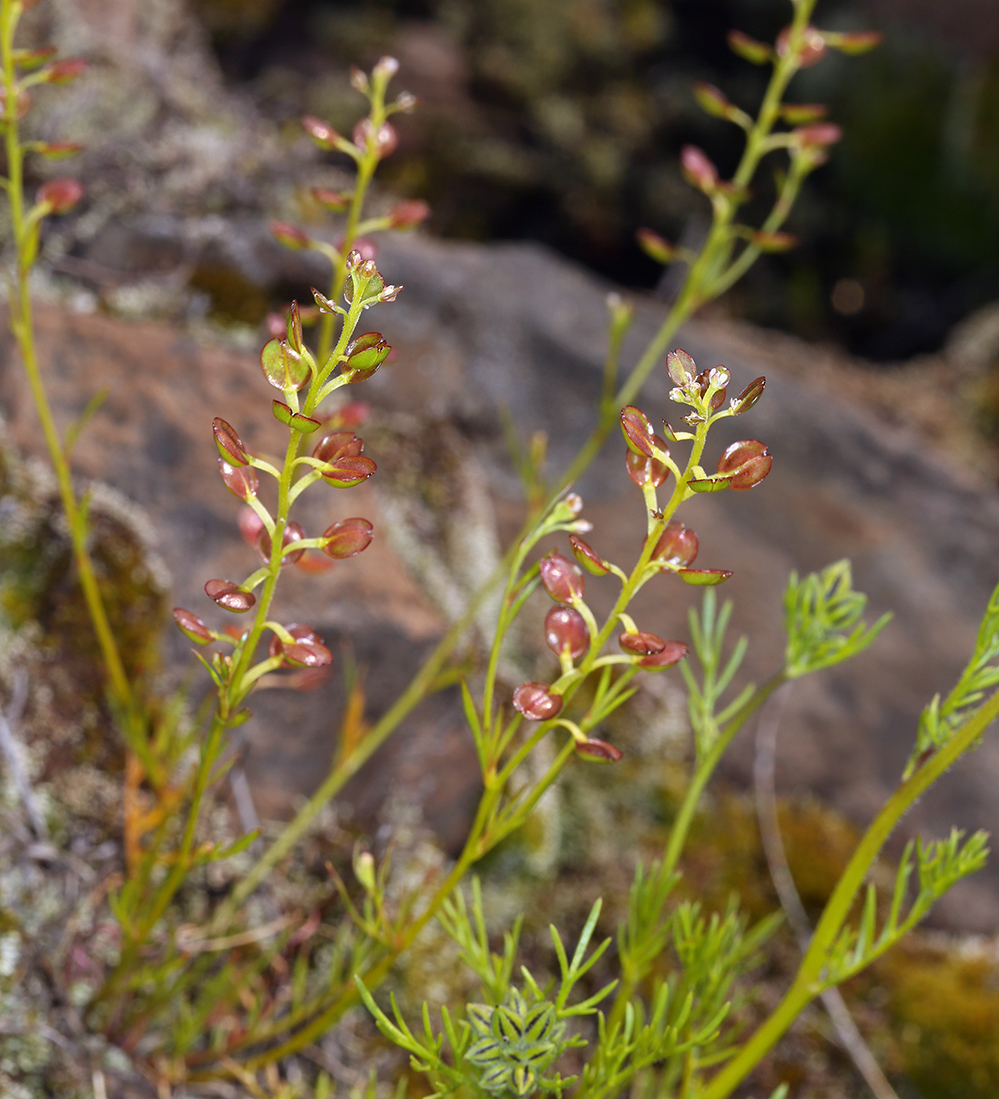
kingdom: Plantae
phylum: Tracheophyta
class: Magnoliopsida
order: Brassicales
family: Brassicaceae
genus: Lepidium
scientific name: Lepidium nitidum
